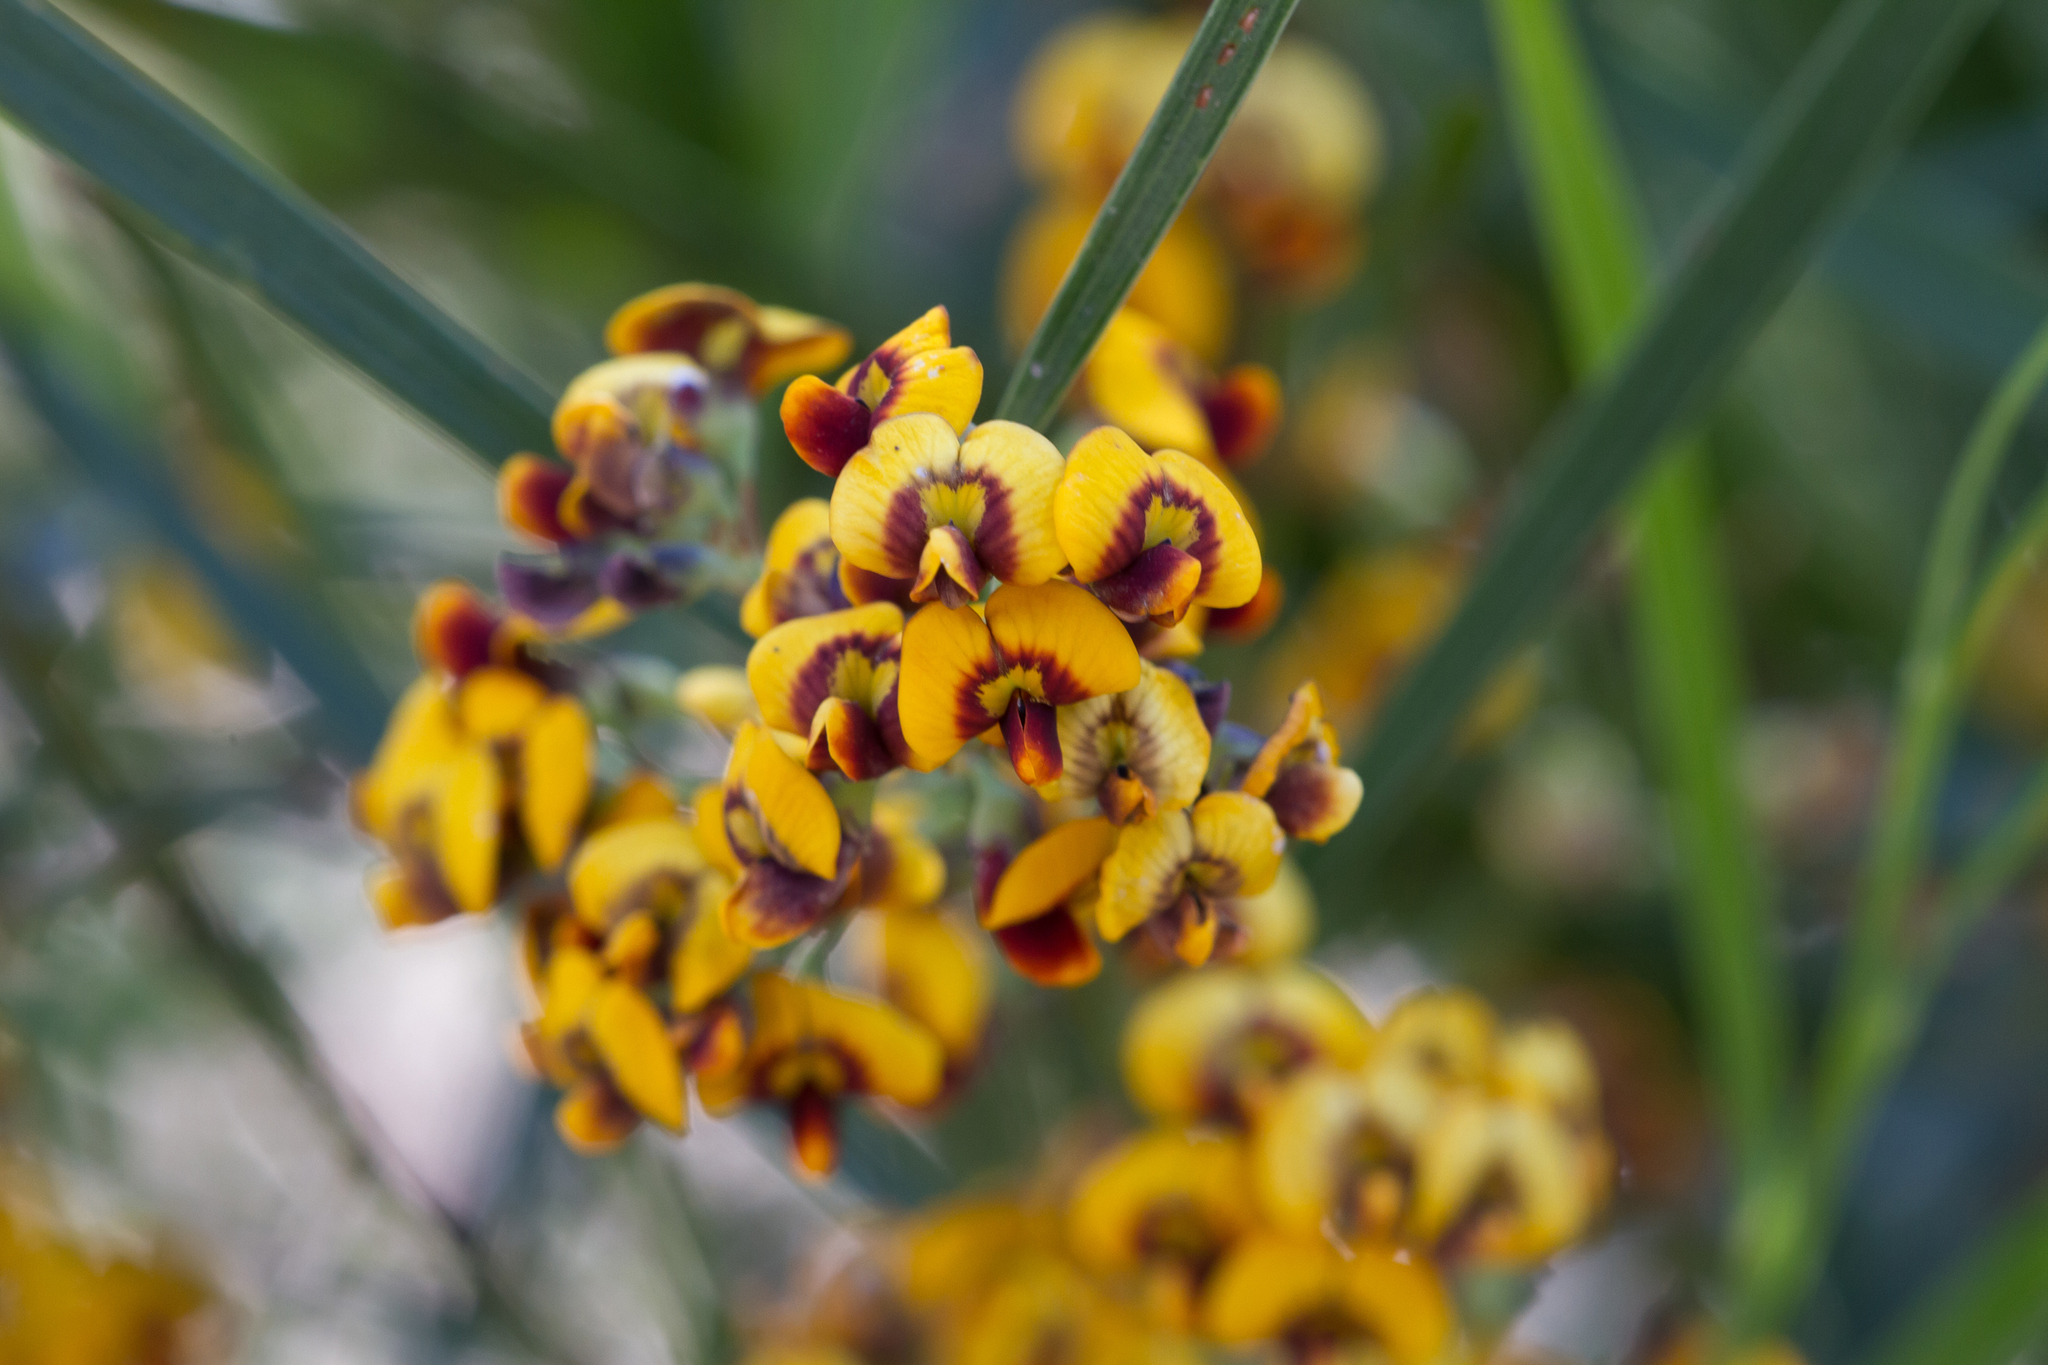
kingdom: Plantae
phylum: Tracheophyta
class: Magnoliopsida
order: Fabales
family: Fabaceae
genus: Daviesia
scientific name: Daviesia leptophylla
